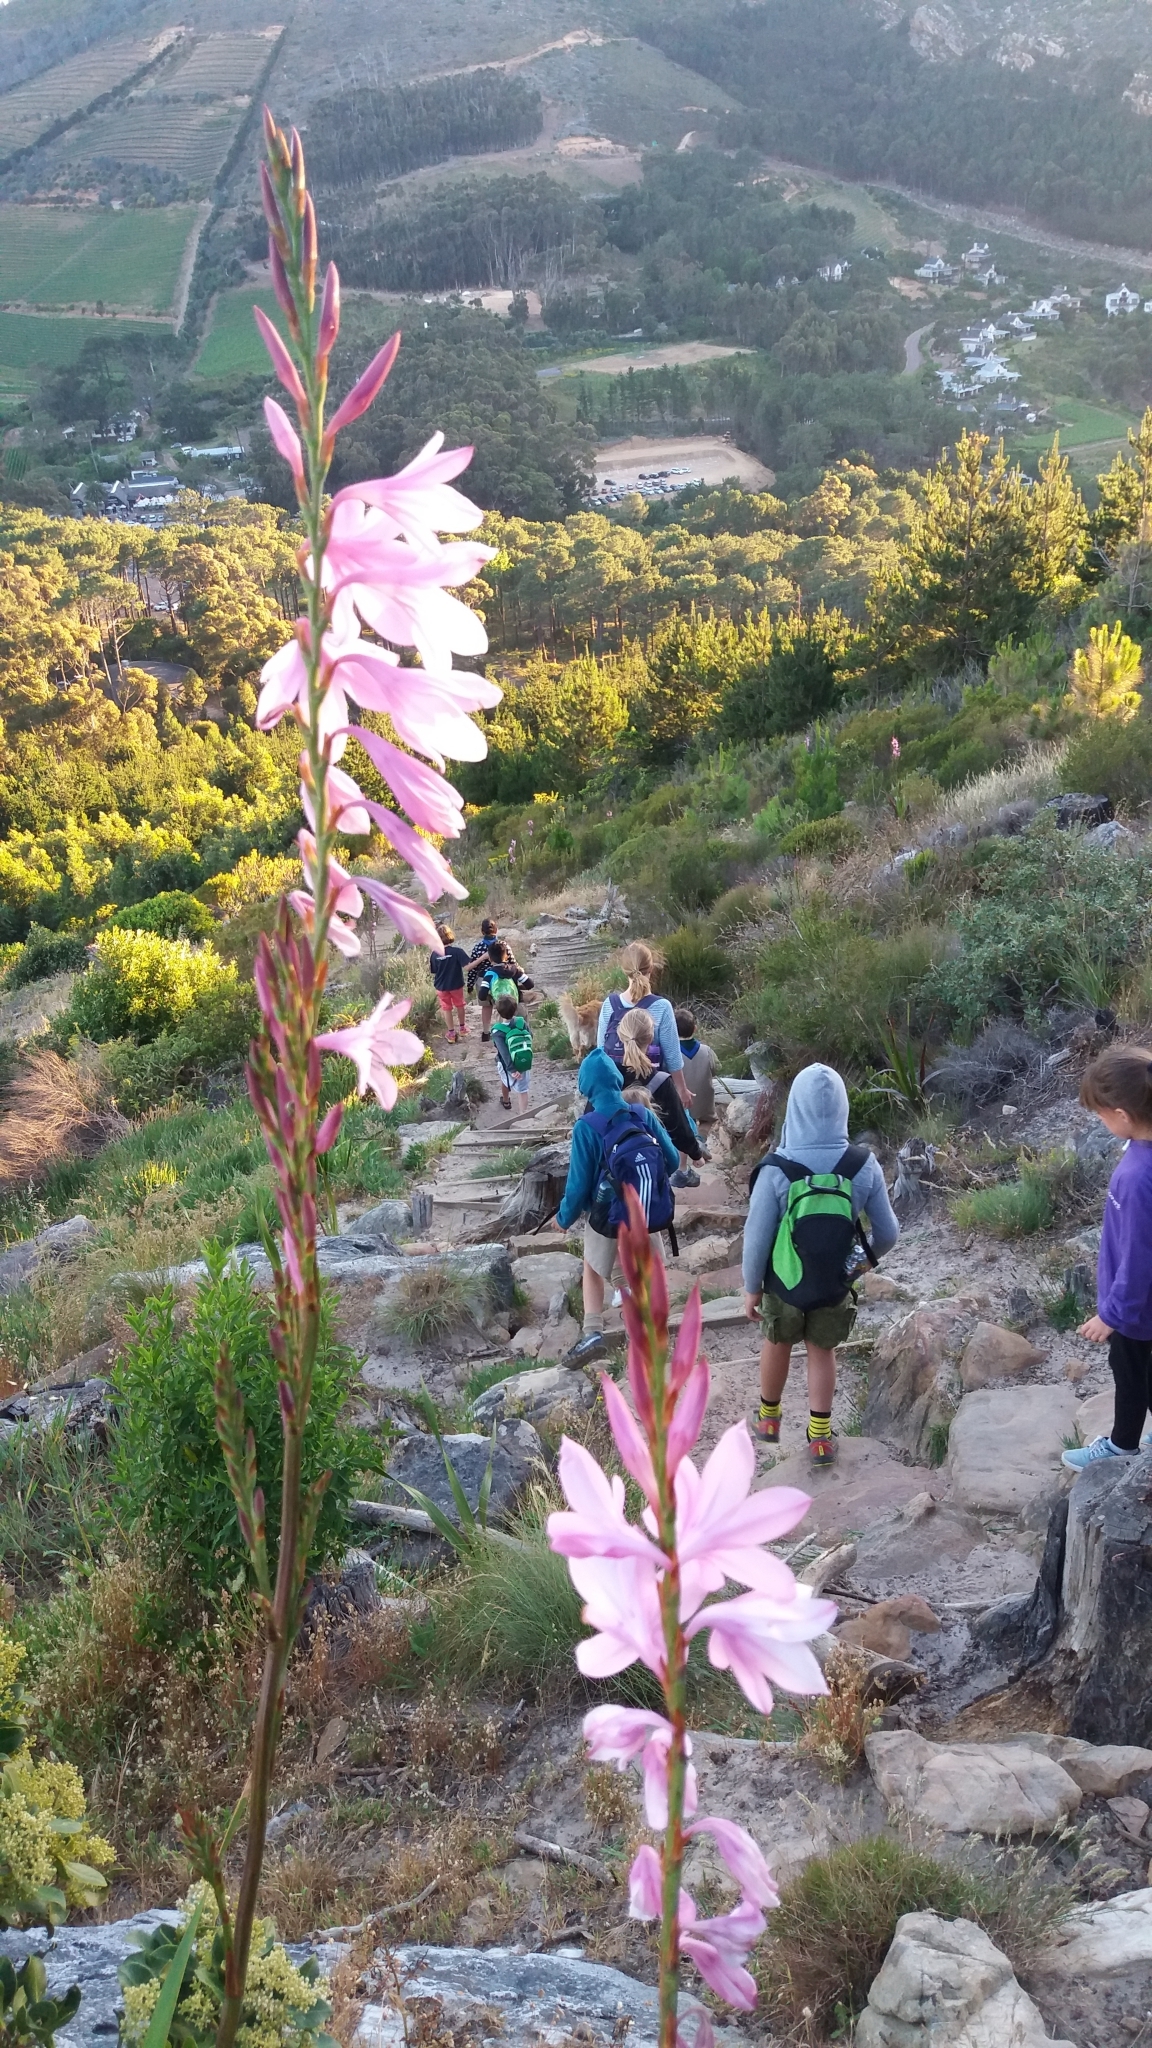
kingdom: Plantae
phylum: Tracheophyta
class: Liliopsida
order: Asparagales
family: Iridaceae
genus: Watsonia
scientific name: Watsonia borbonica
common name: Bugle-lily
